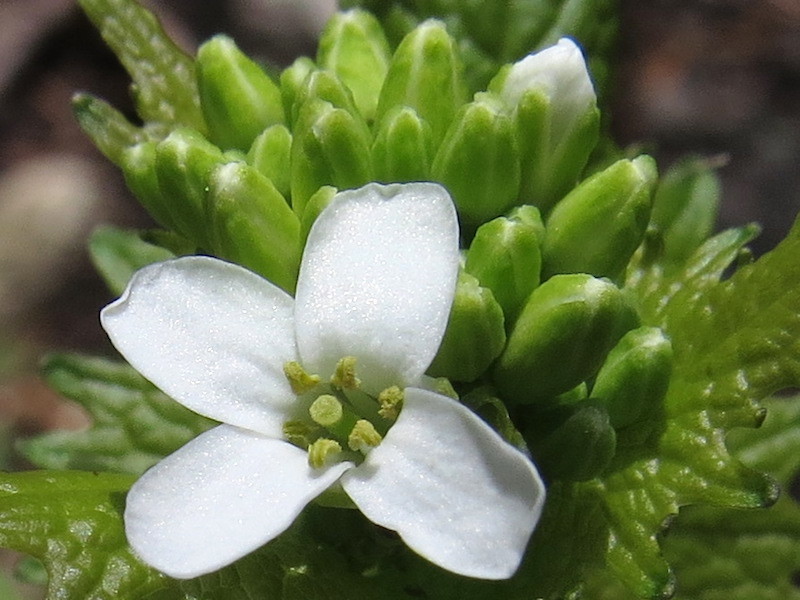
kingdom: Plantae
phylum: Tracheophyta
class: Magnoliopsida
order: Brassicales
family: Brassicaceae
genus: Alliaria
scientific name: Alliaria petiolata
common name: Garlic mustard
